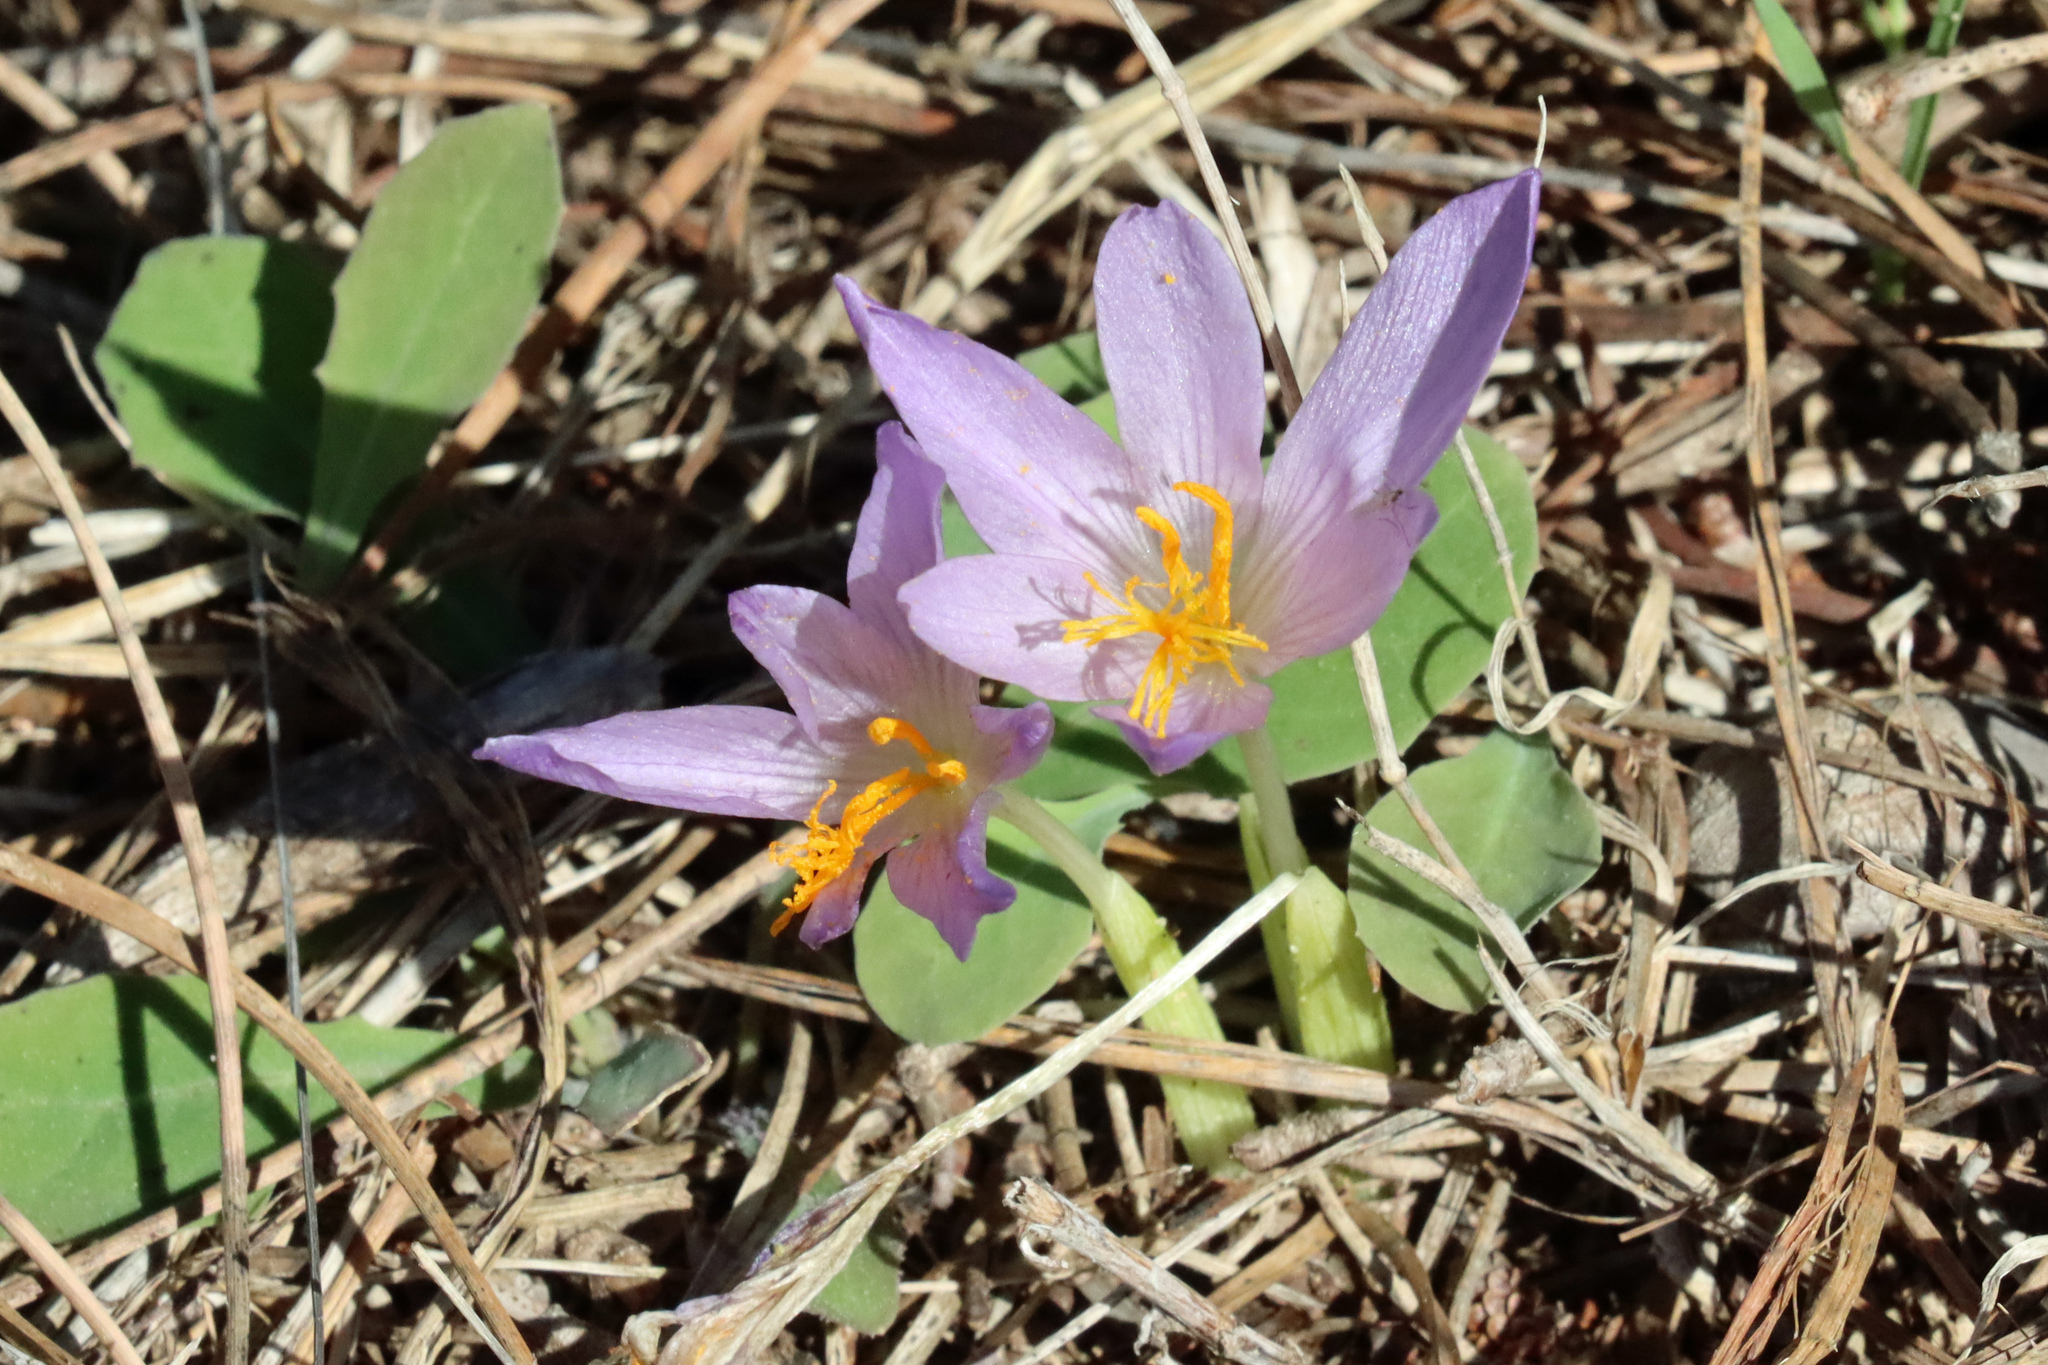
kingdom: Plantae
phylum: Tracheophyta
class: Liliopsida
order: Asparagales
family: Iridaceae
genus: Crocus
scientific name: Crocus serotinus
